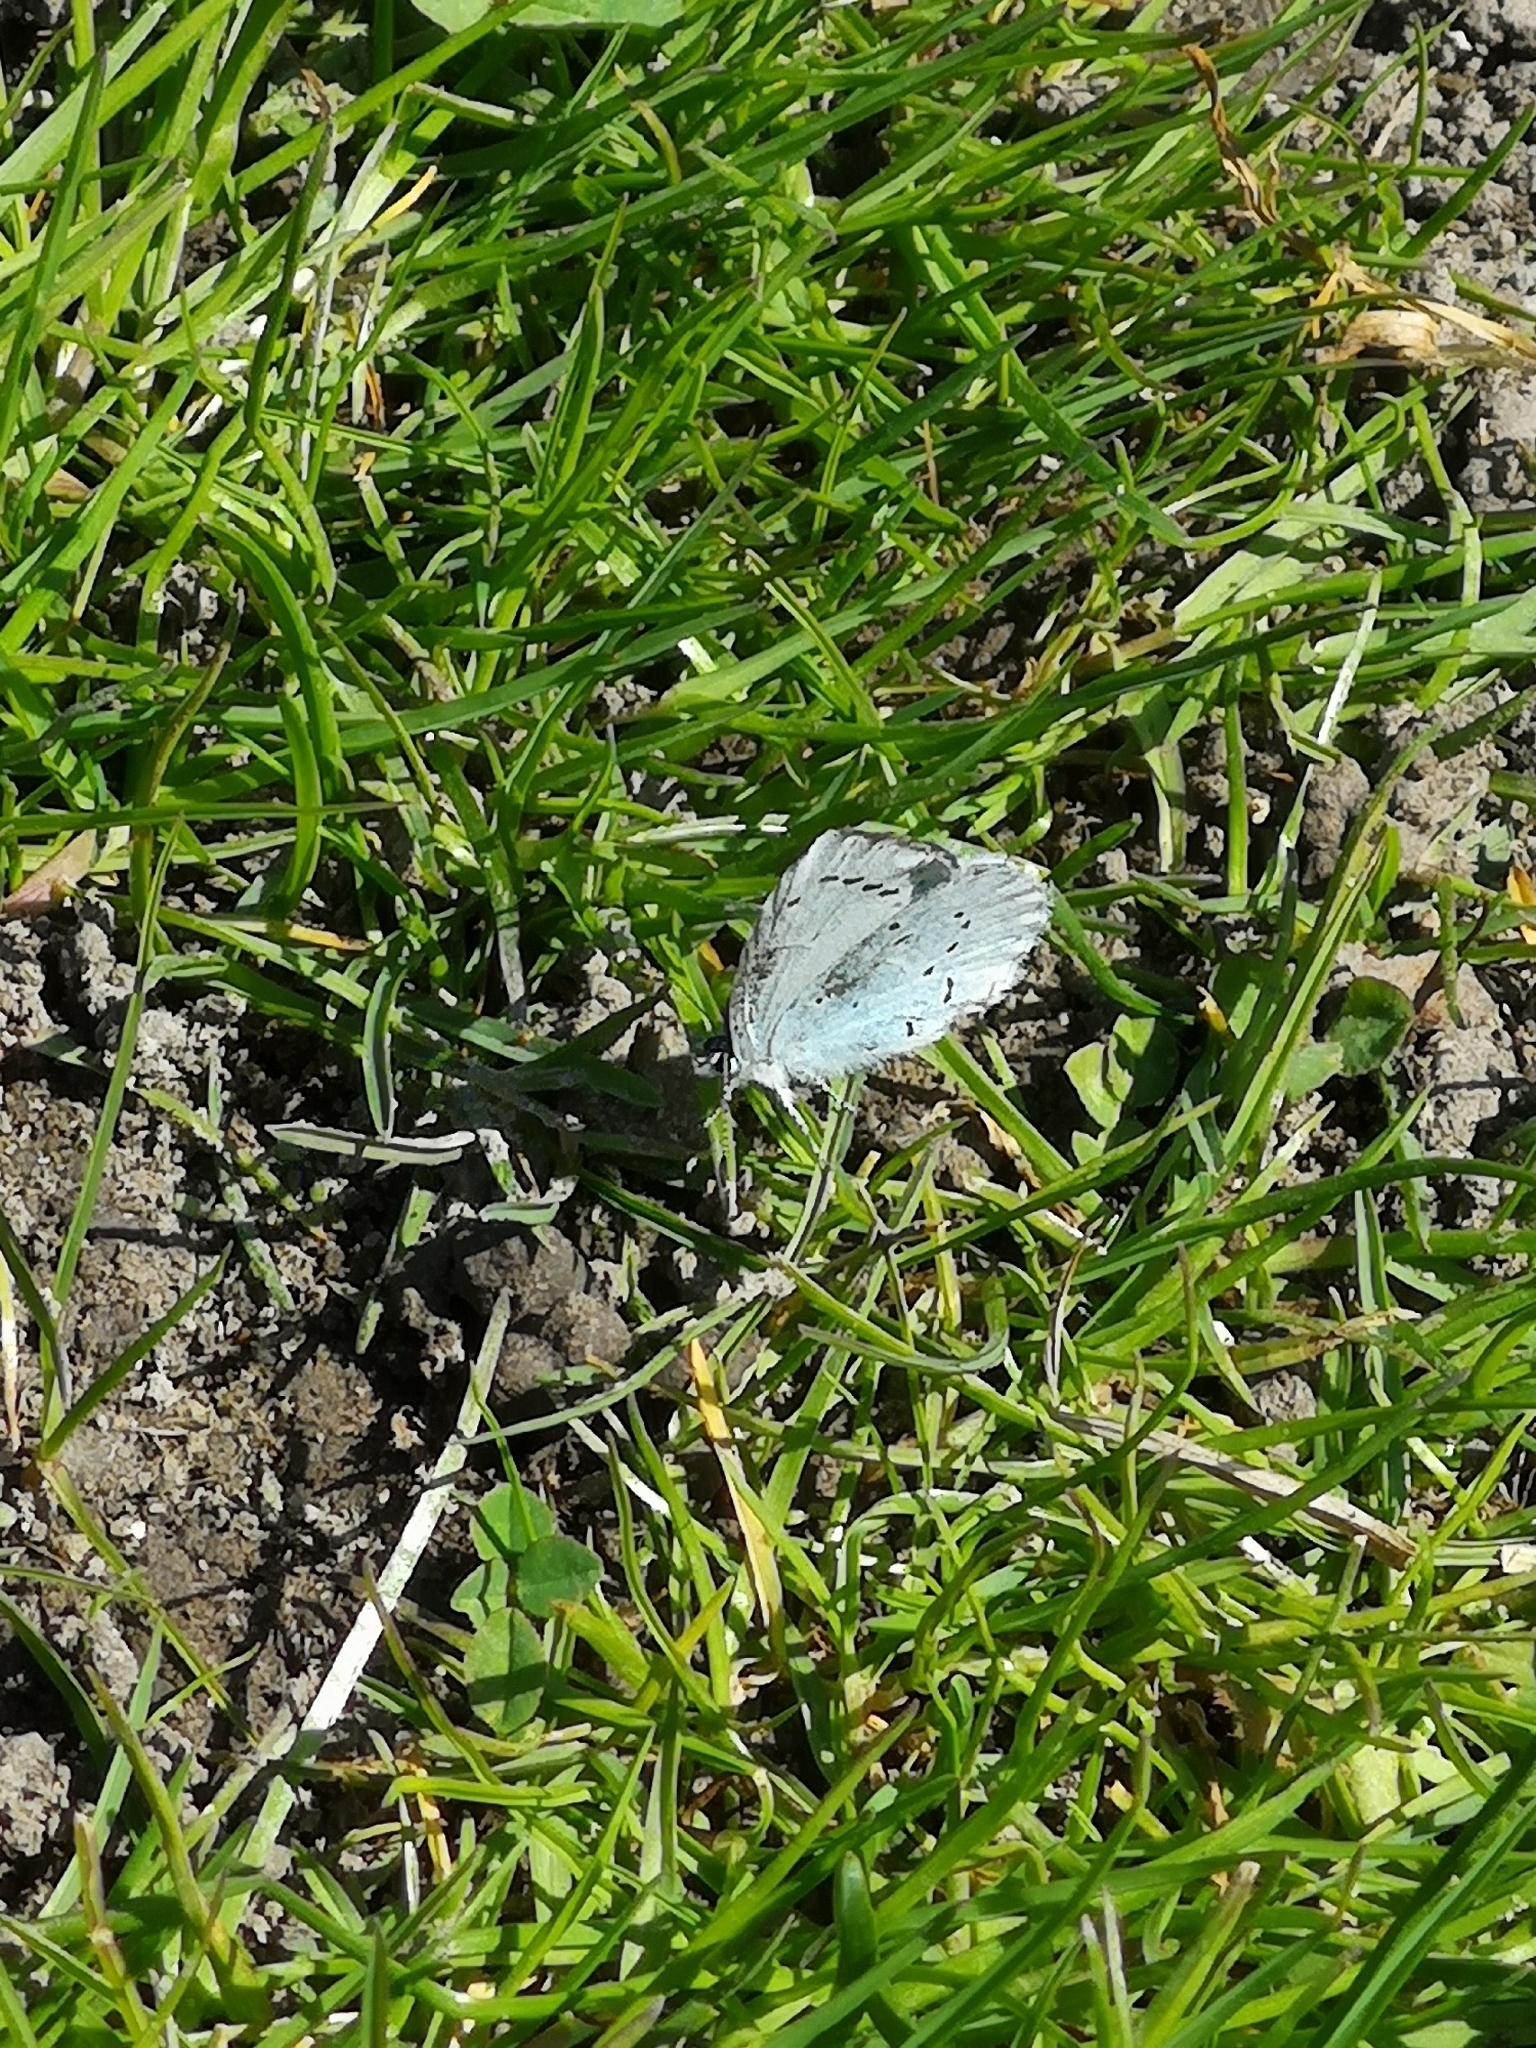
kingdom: Animalia
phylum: Arthropoda
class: Insecta
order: Lepidoptera
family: Lycaenidae
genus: Celastrina
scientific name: Celastrina argiolus
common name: Holly blue
